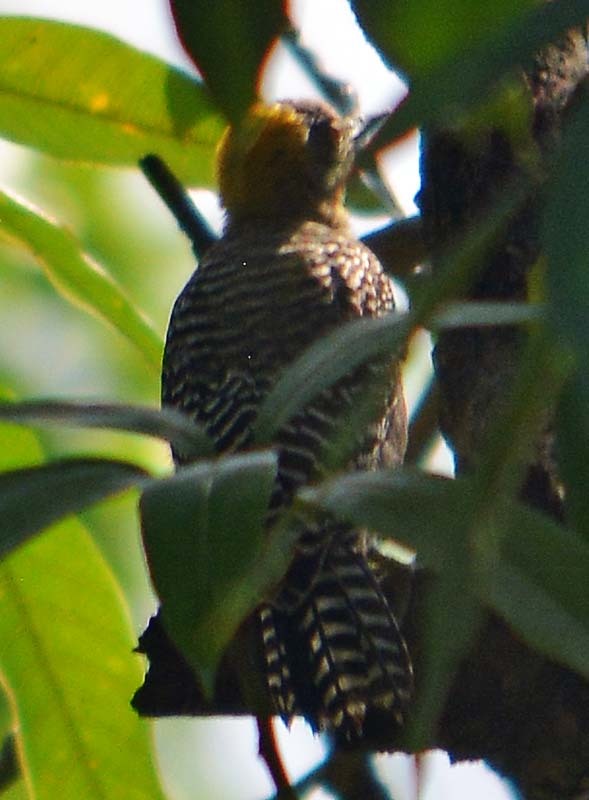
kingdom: Animalia
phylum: Chordata
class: Aves
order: Piciformes
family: Picidae
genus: Melanerpes
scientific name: Melanerpes chrysogenys
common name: Golden-cheeked woodpecker
